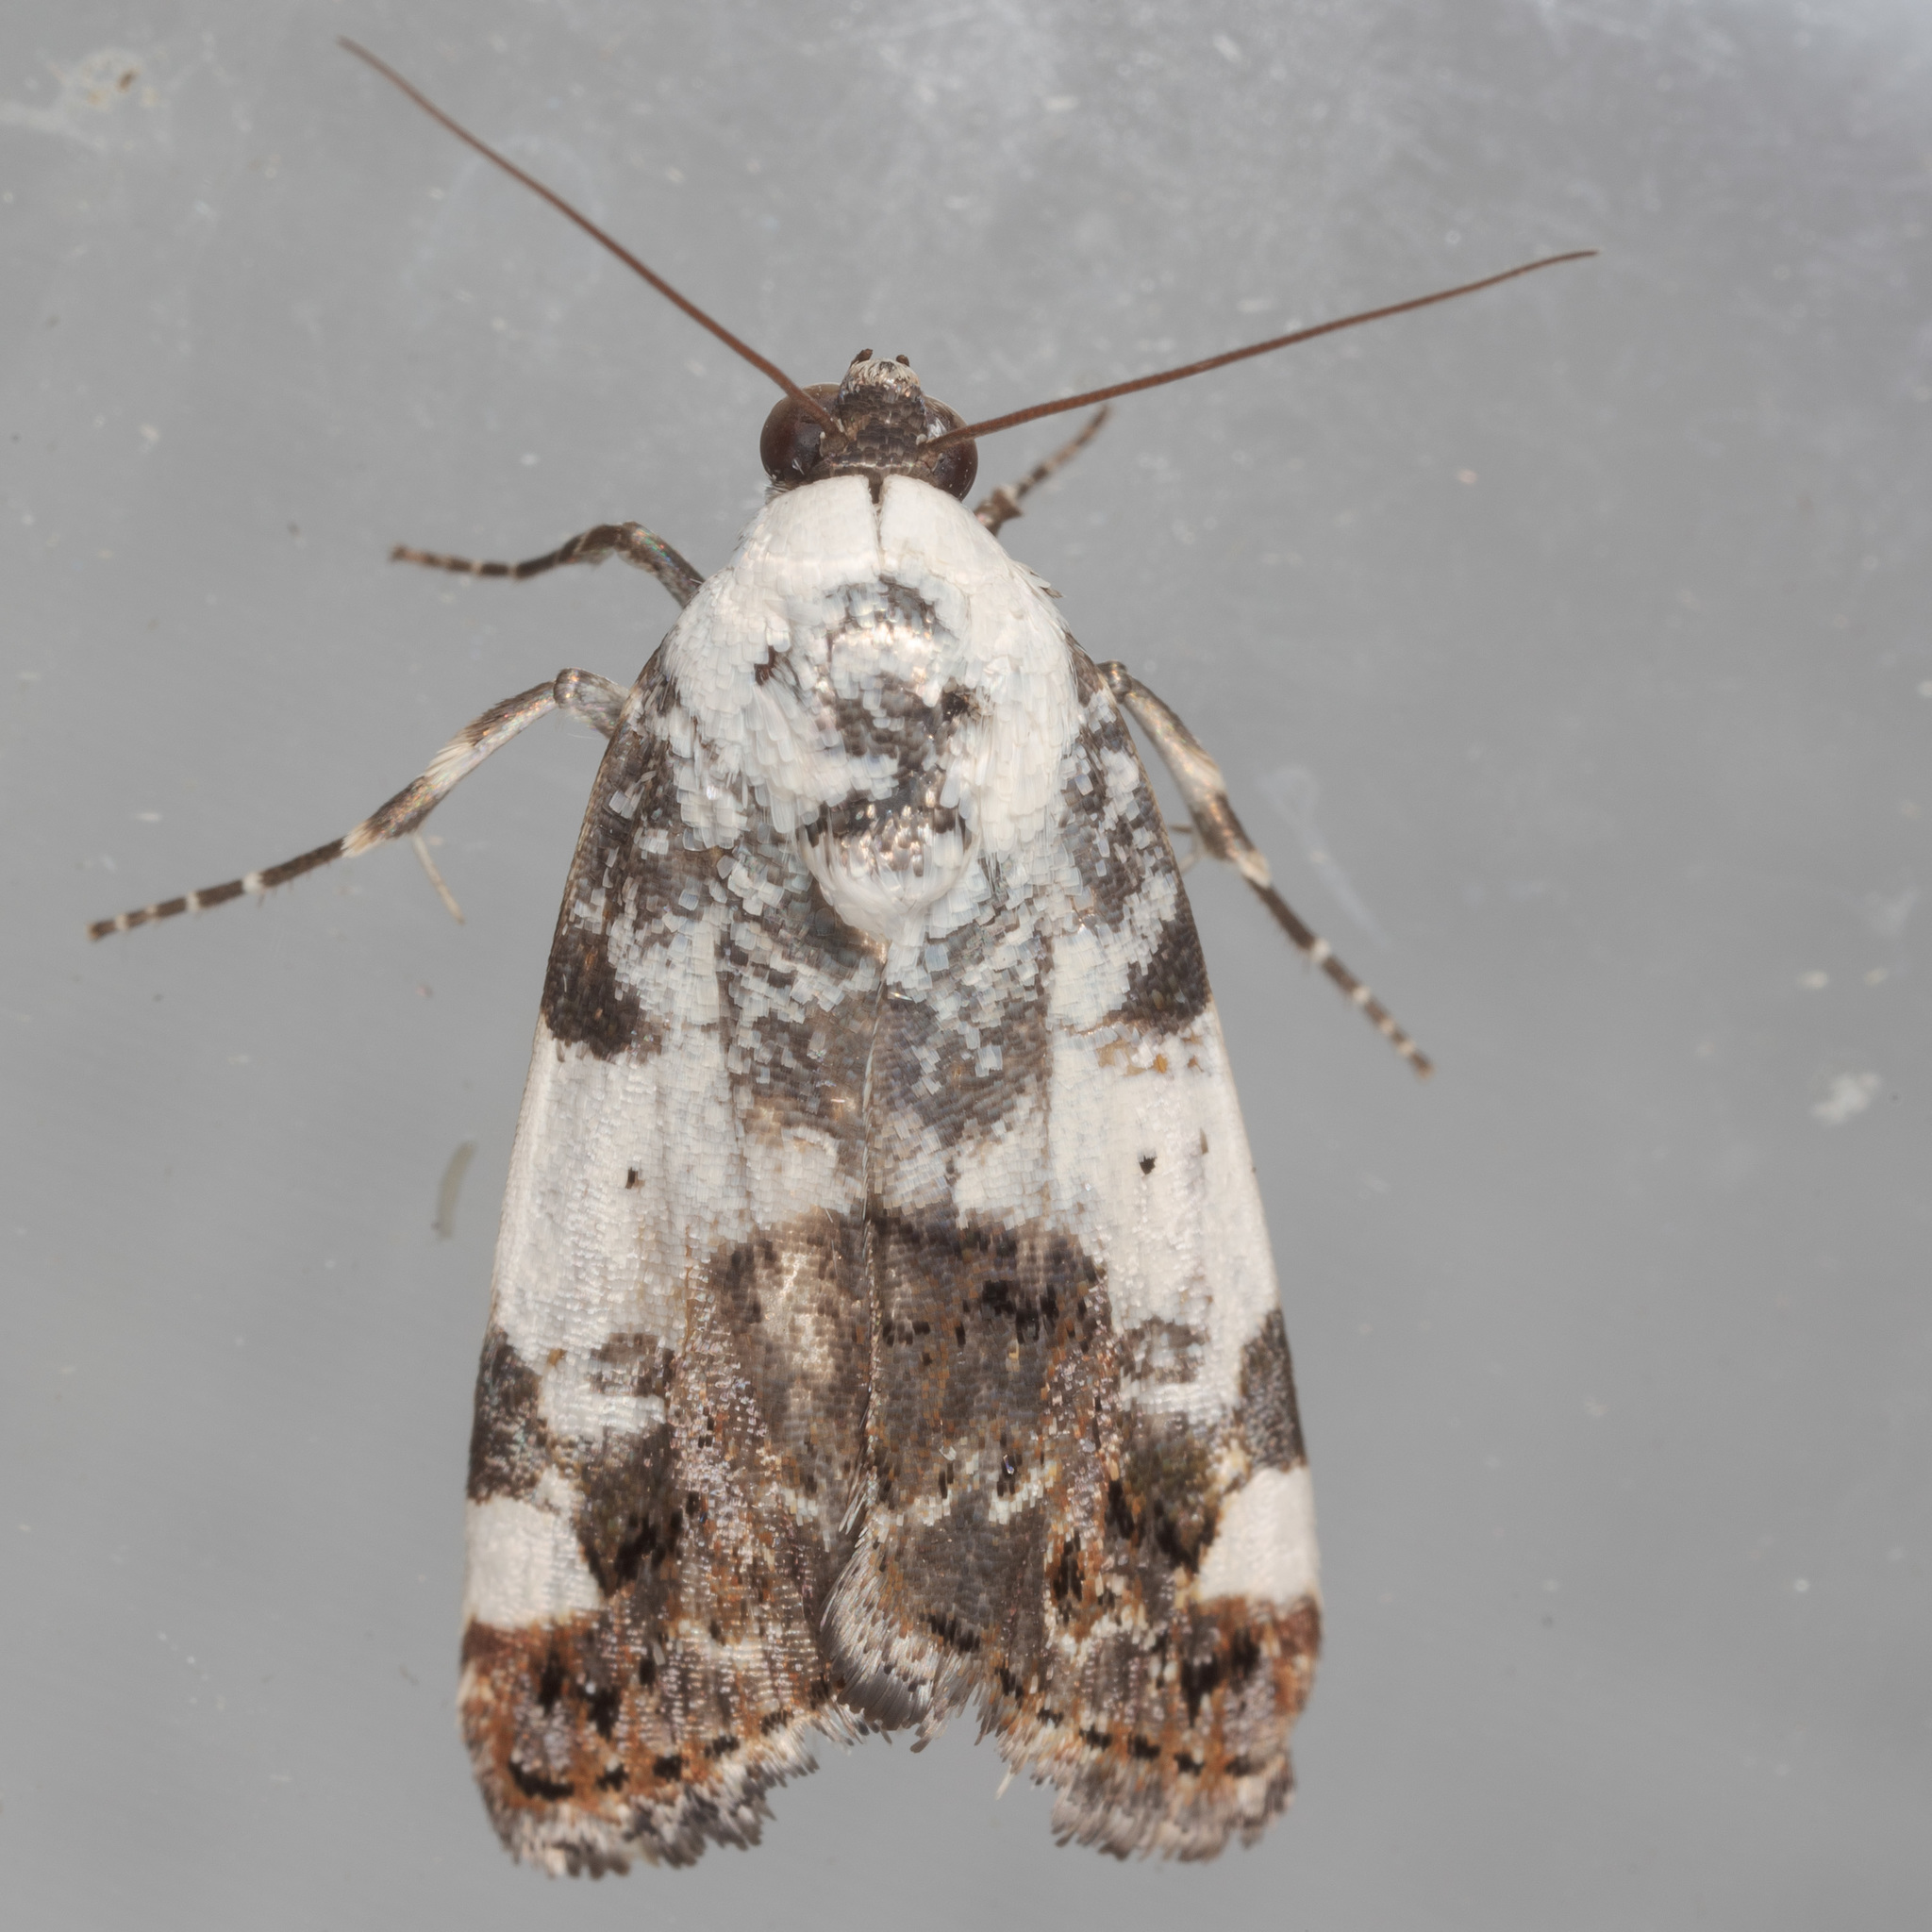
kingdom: Animalia
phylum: Arthropoda
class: Insecta
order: Lepidoptera
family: Noctuidae
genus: Acontia
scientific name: Acontia aprica
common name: Nun
